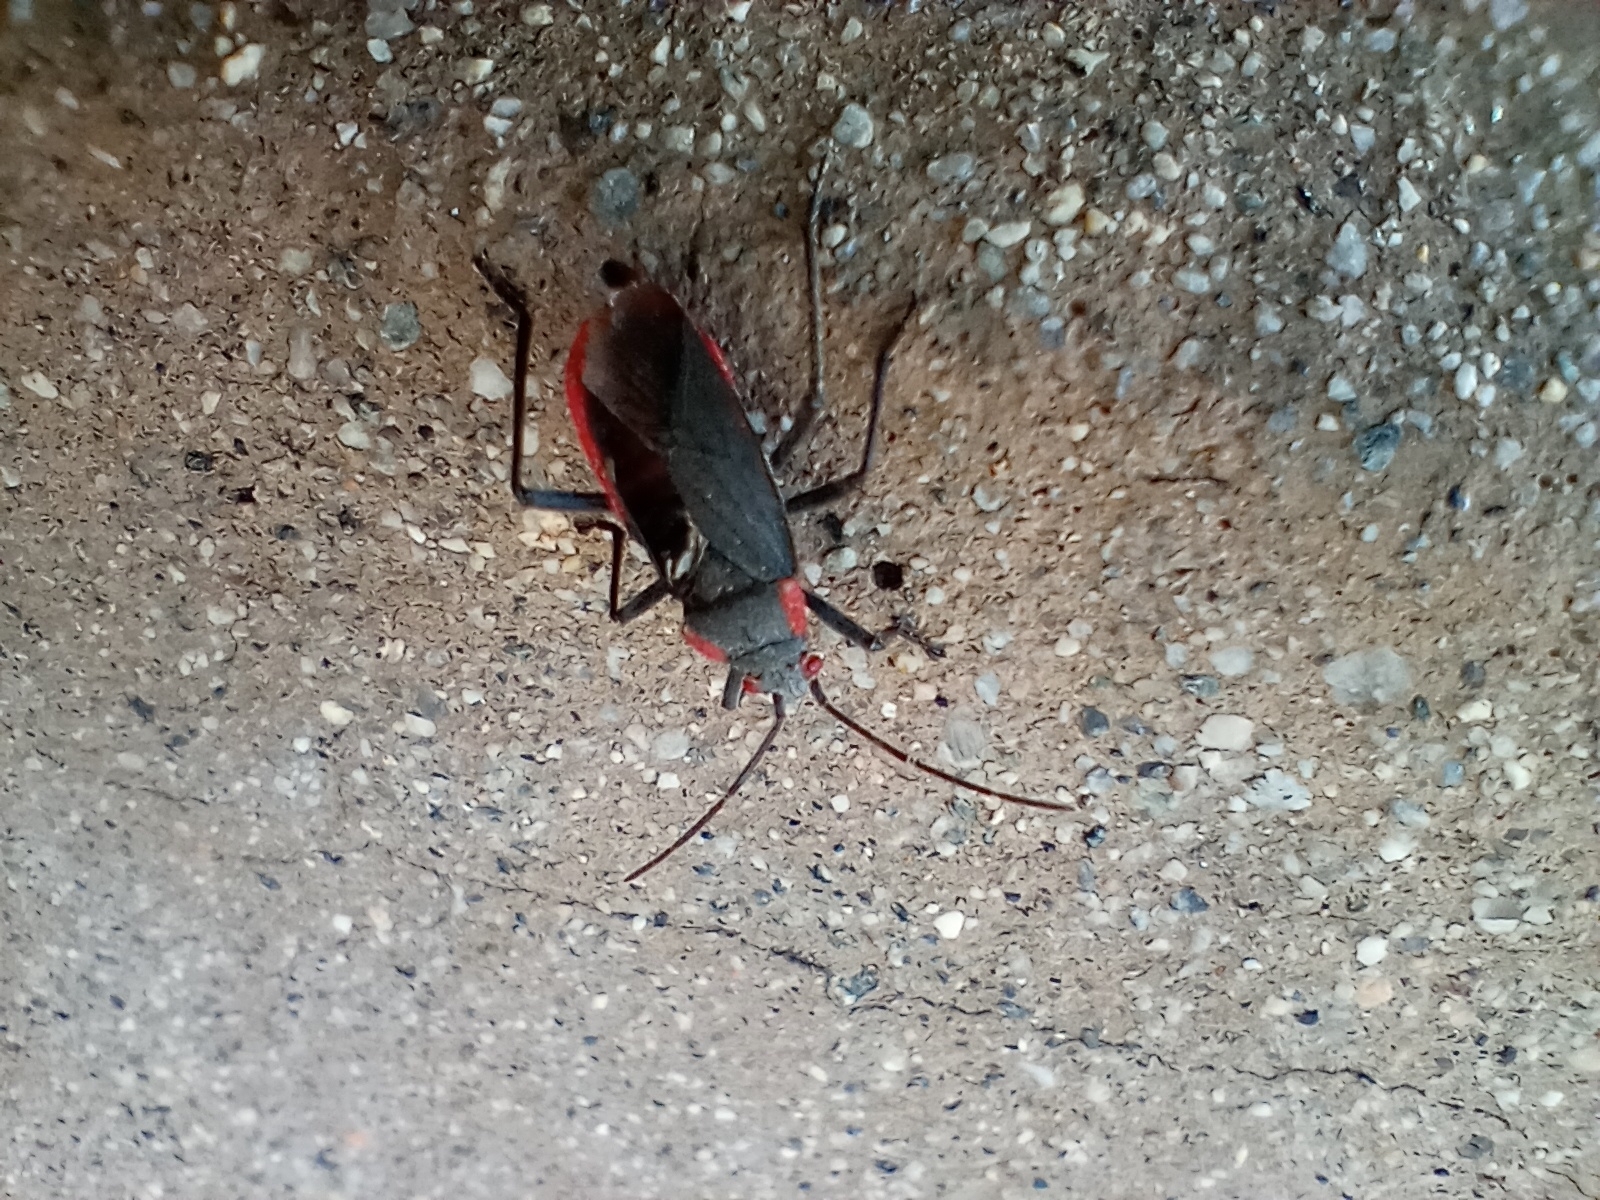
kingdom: Animalia
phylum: Arthropoda
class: Insecta
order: Hemiptera
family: Rhopalidae
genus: Jadera
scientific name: Jadera haematoloma
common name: Red-shouldered bug
